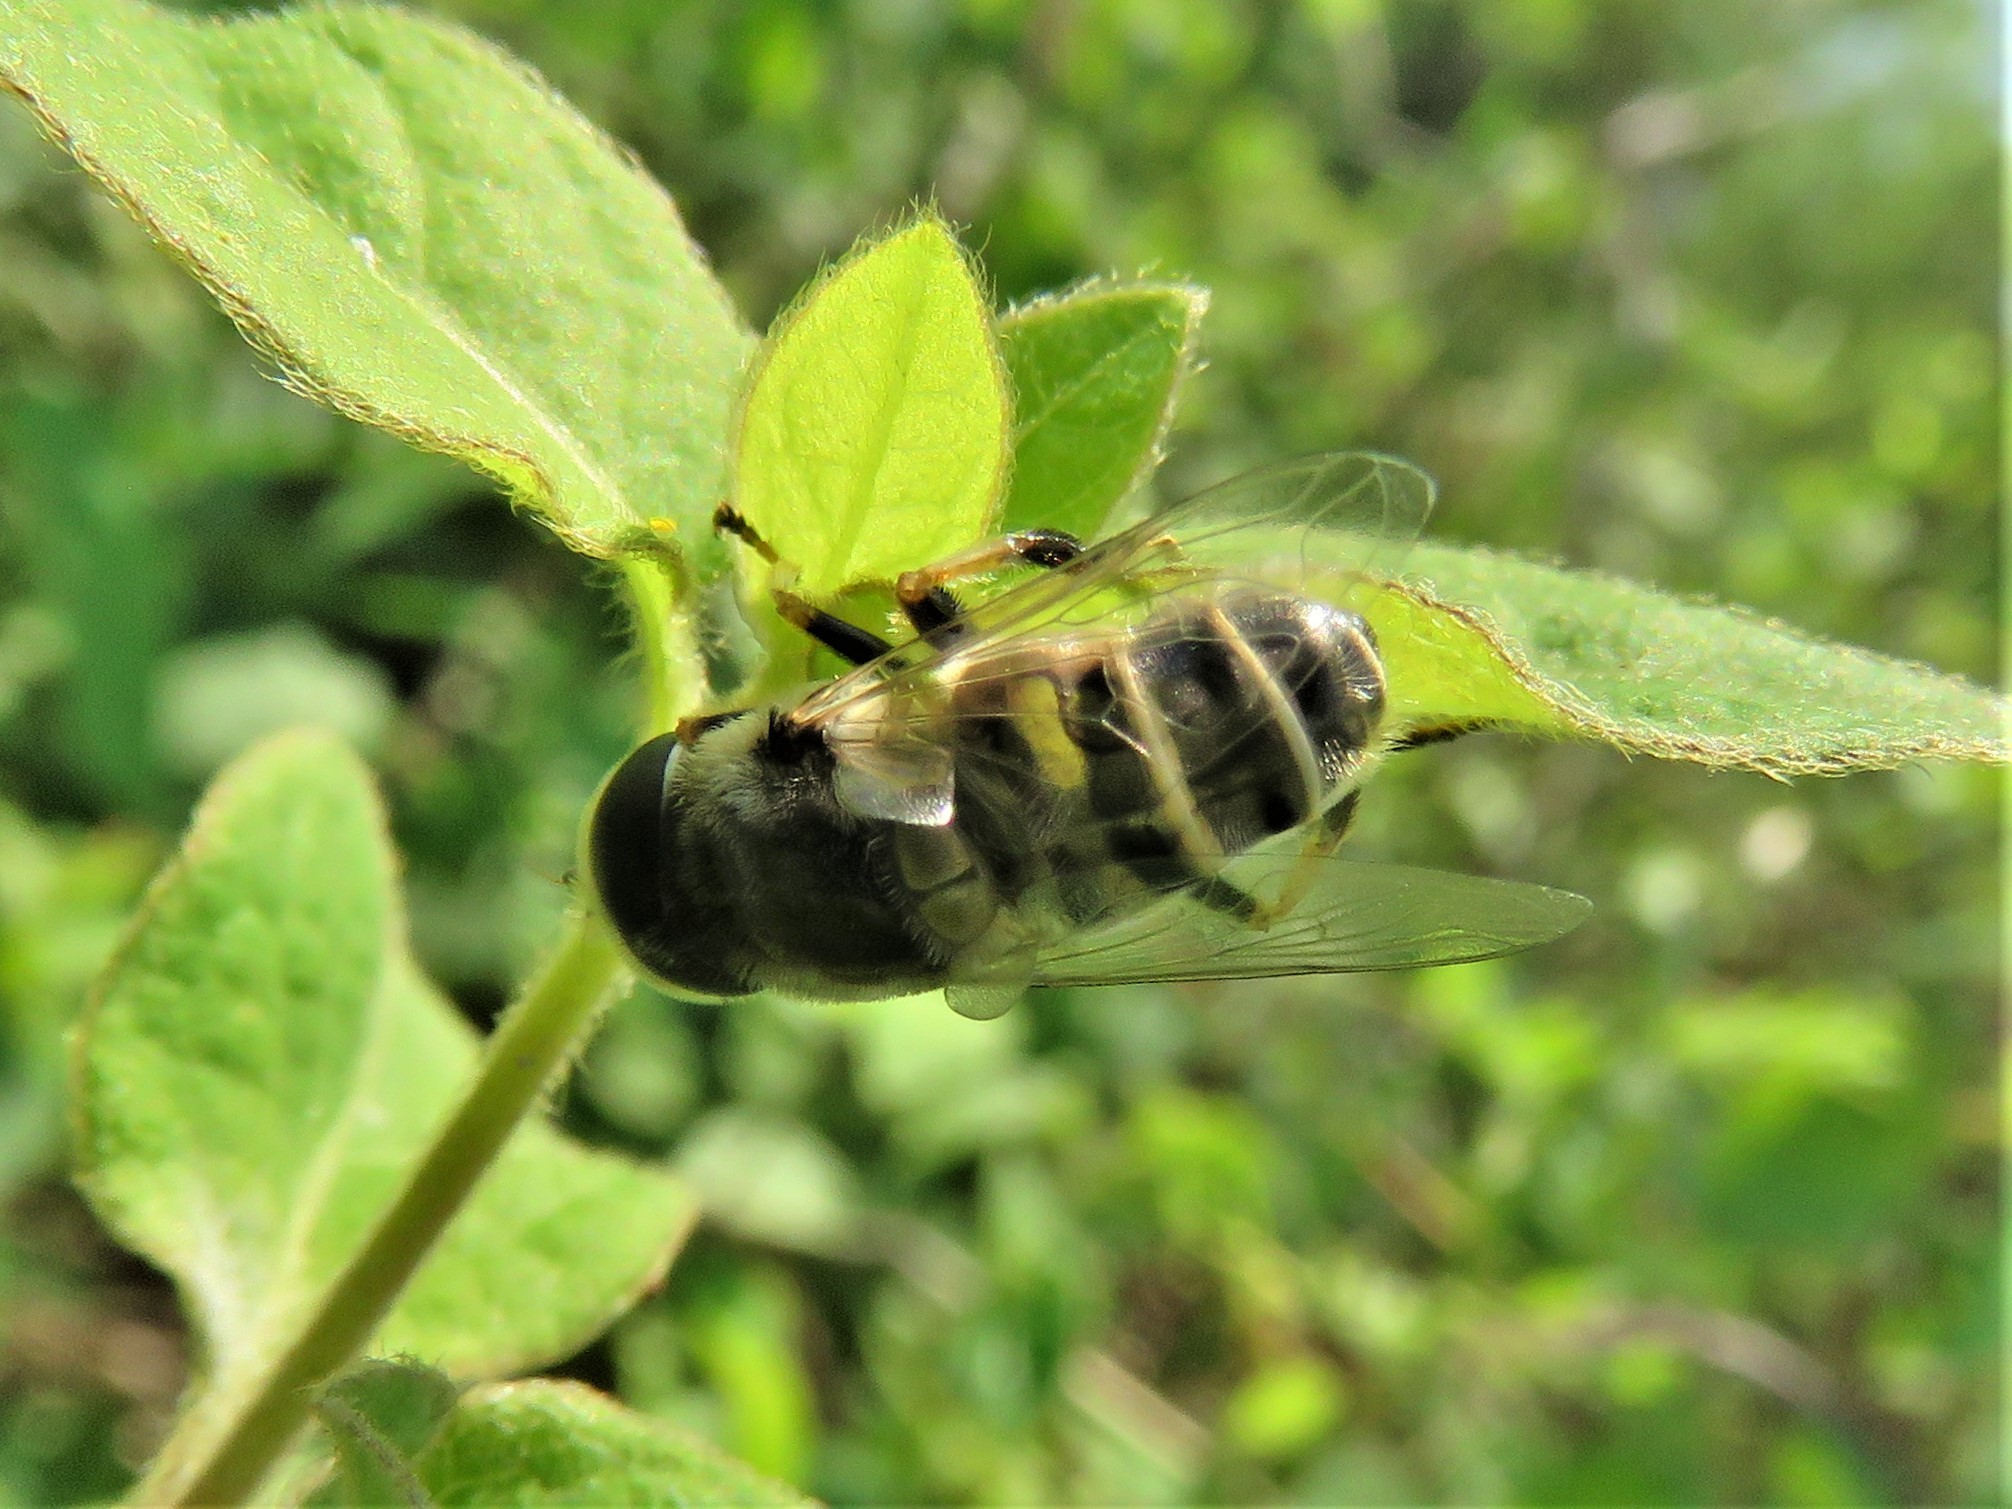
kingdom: Animalia
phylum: Arthropoda
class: Insecta
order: Diptera
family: Syrphidae
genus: Eristalis
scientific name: Eristalis stipator
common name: Yellow-shouldered drone fly
